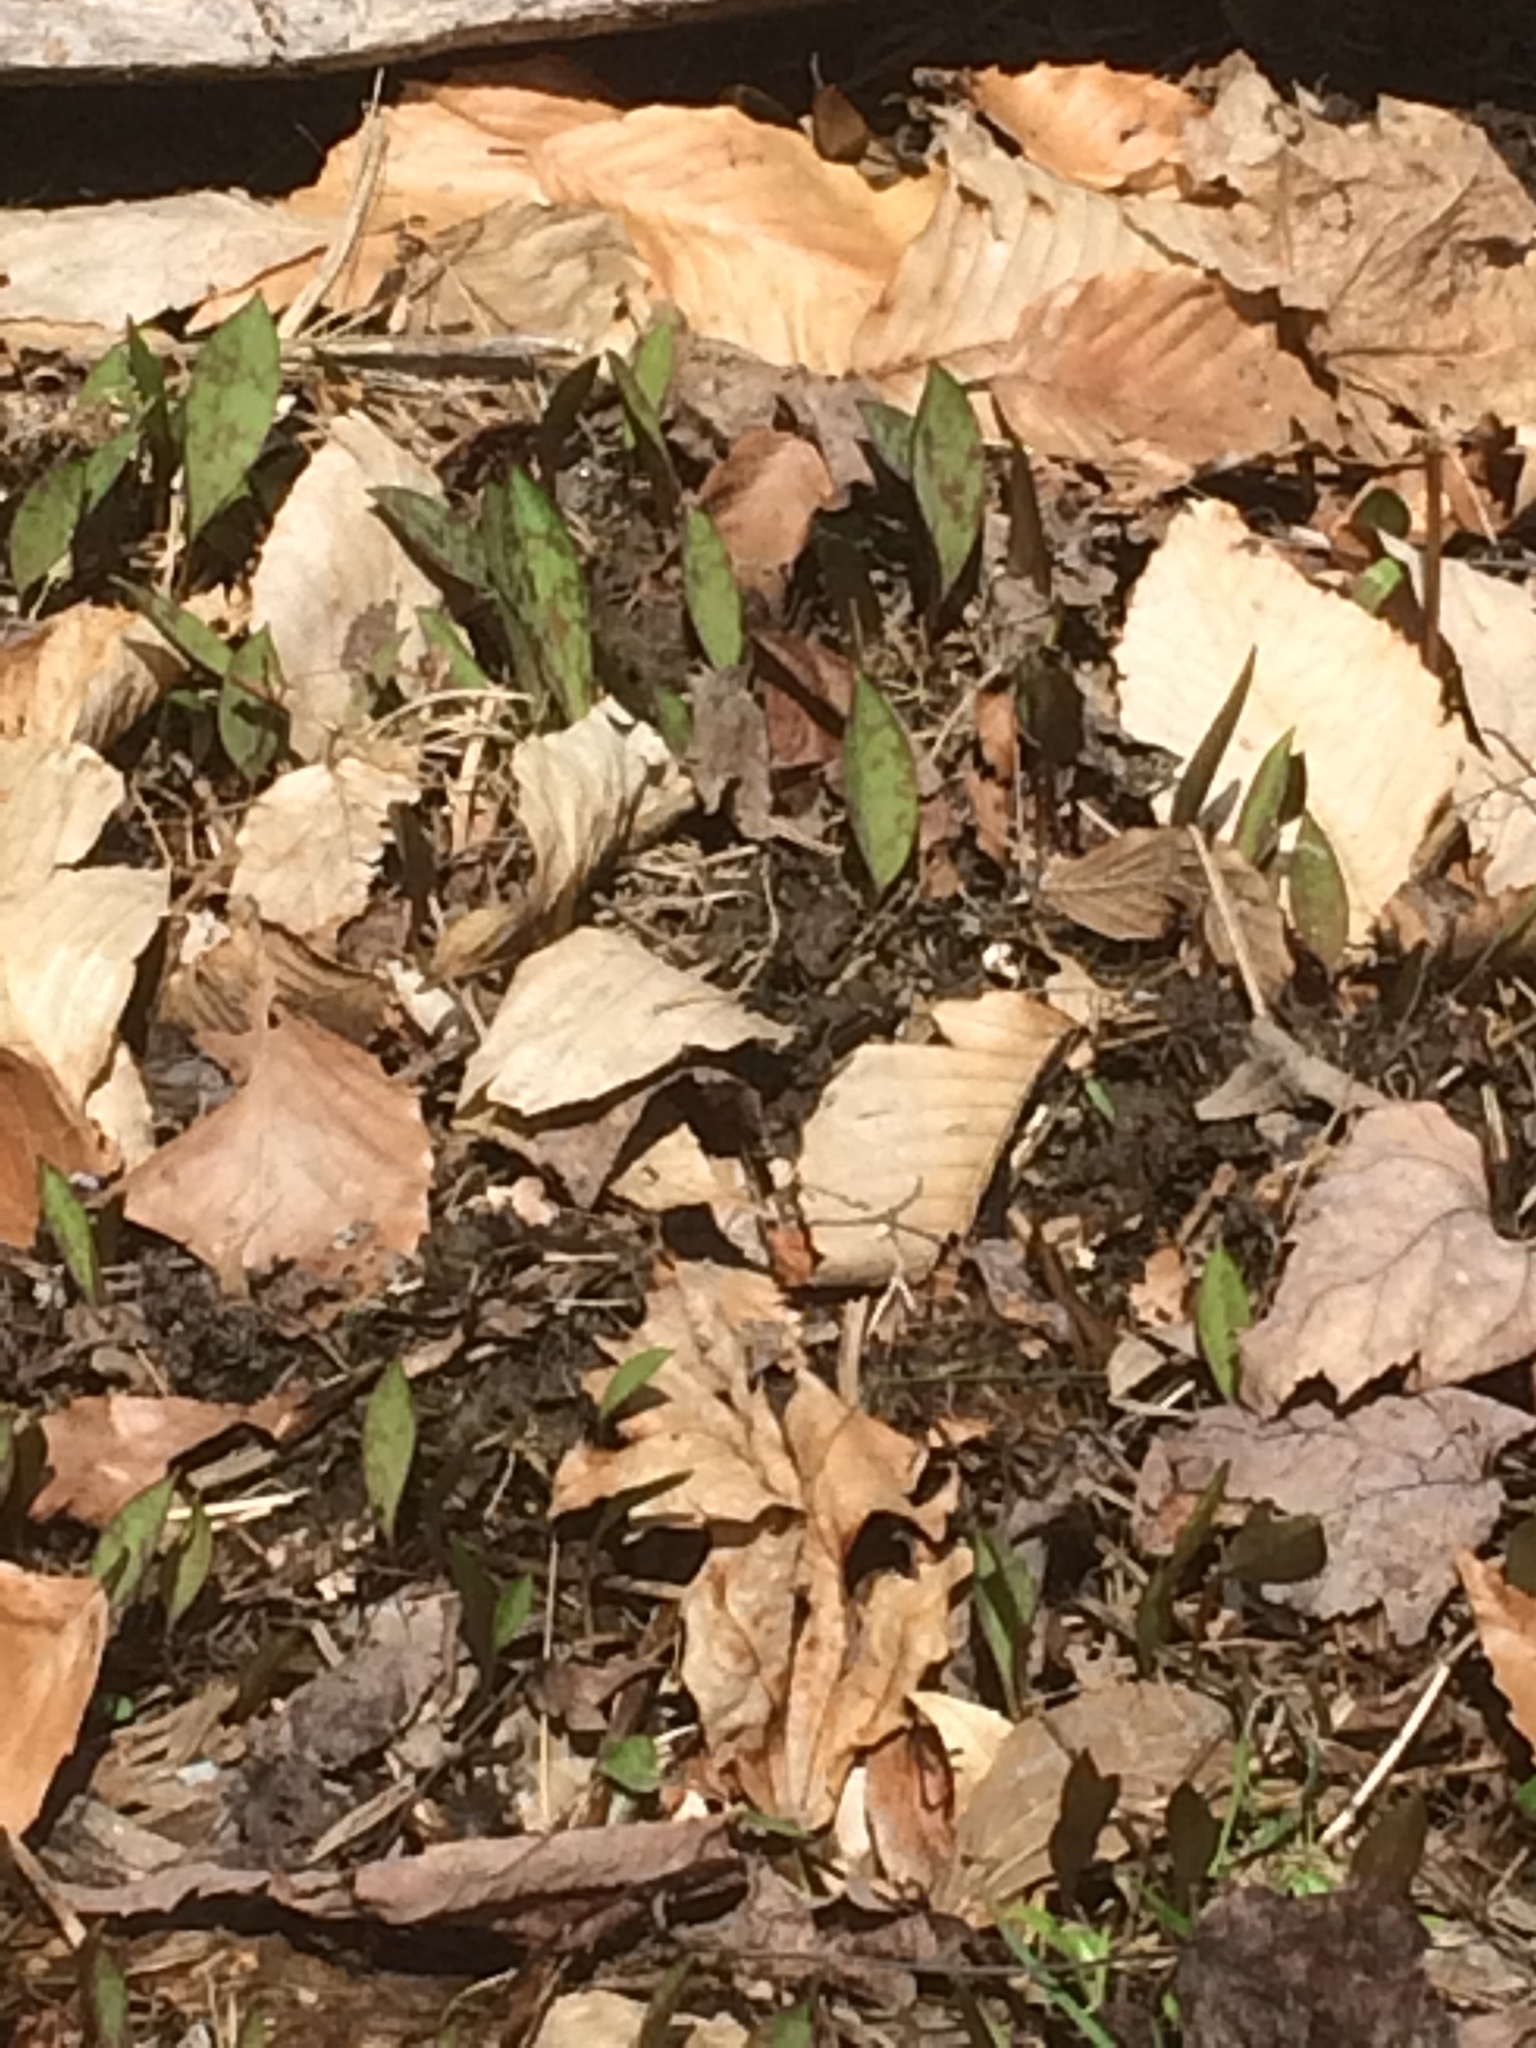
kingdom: Plantae
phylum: Tracheophyta
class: Liliopsida
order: Liliales
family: Liliaceae
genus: Erythronium
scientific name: Erythronium americanum
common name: Yellow adder's-tongue
